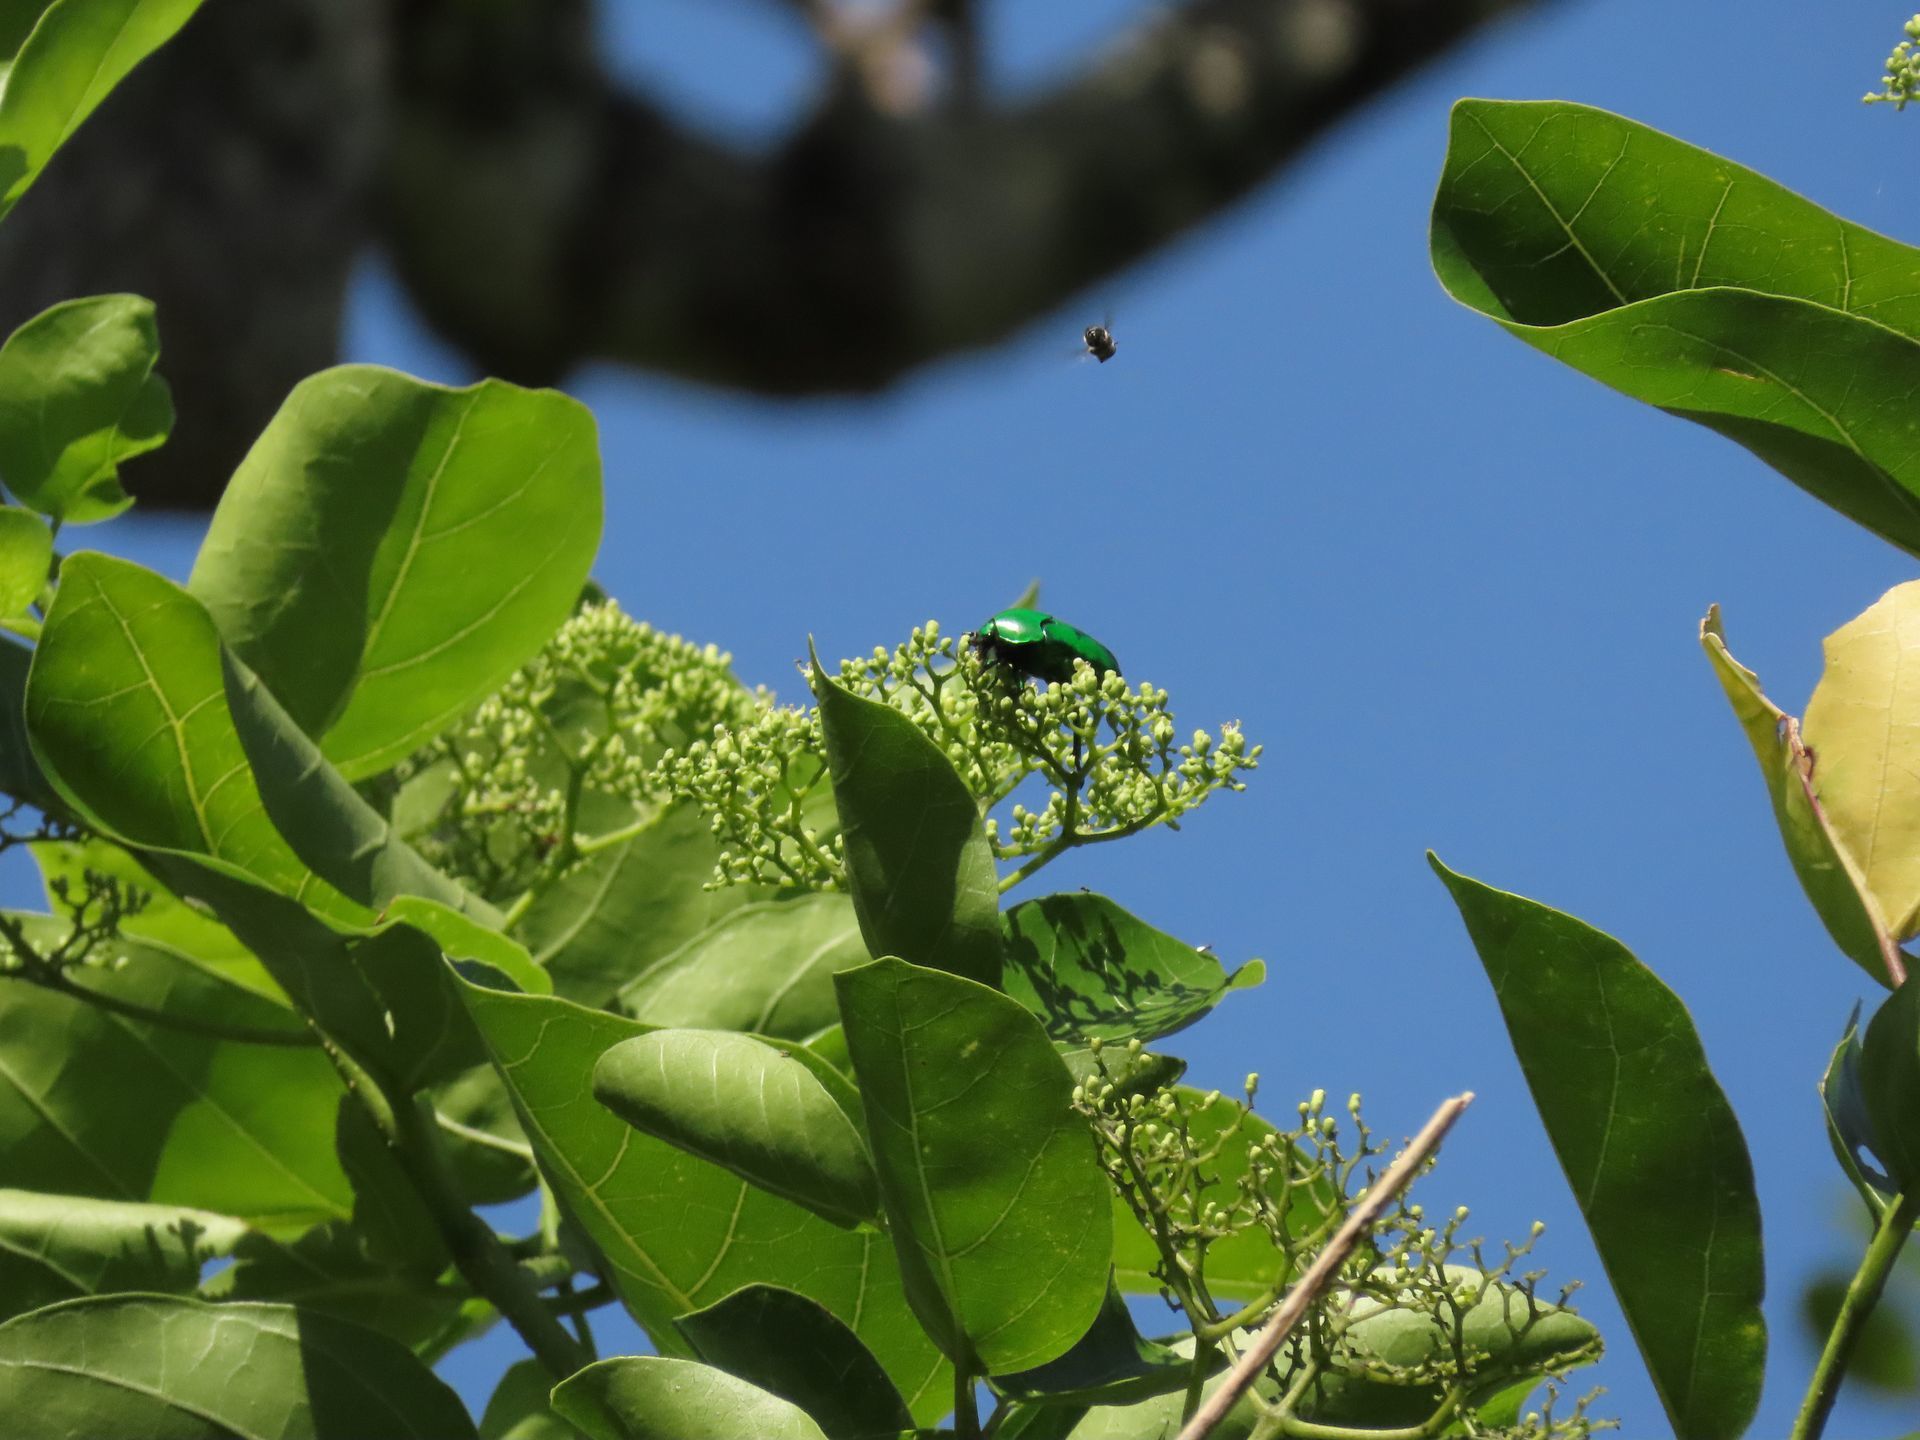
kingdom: Animalia
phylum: Arthropoda
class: Insecta
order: Coleoptera
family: Scarabaeidae
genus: Ischiopsopha
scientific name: Ischiopsopha wallacei
